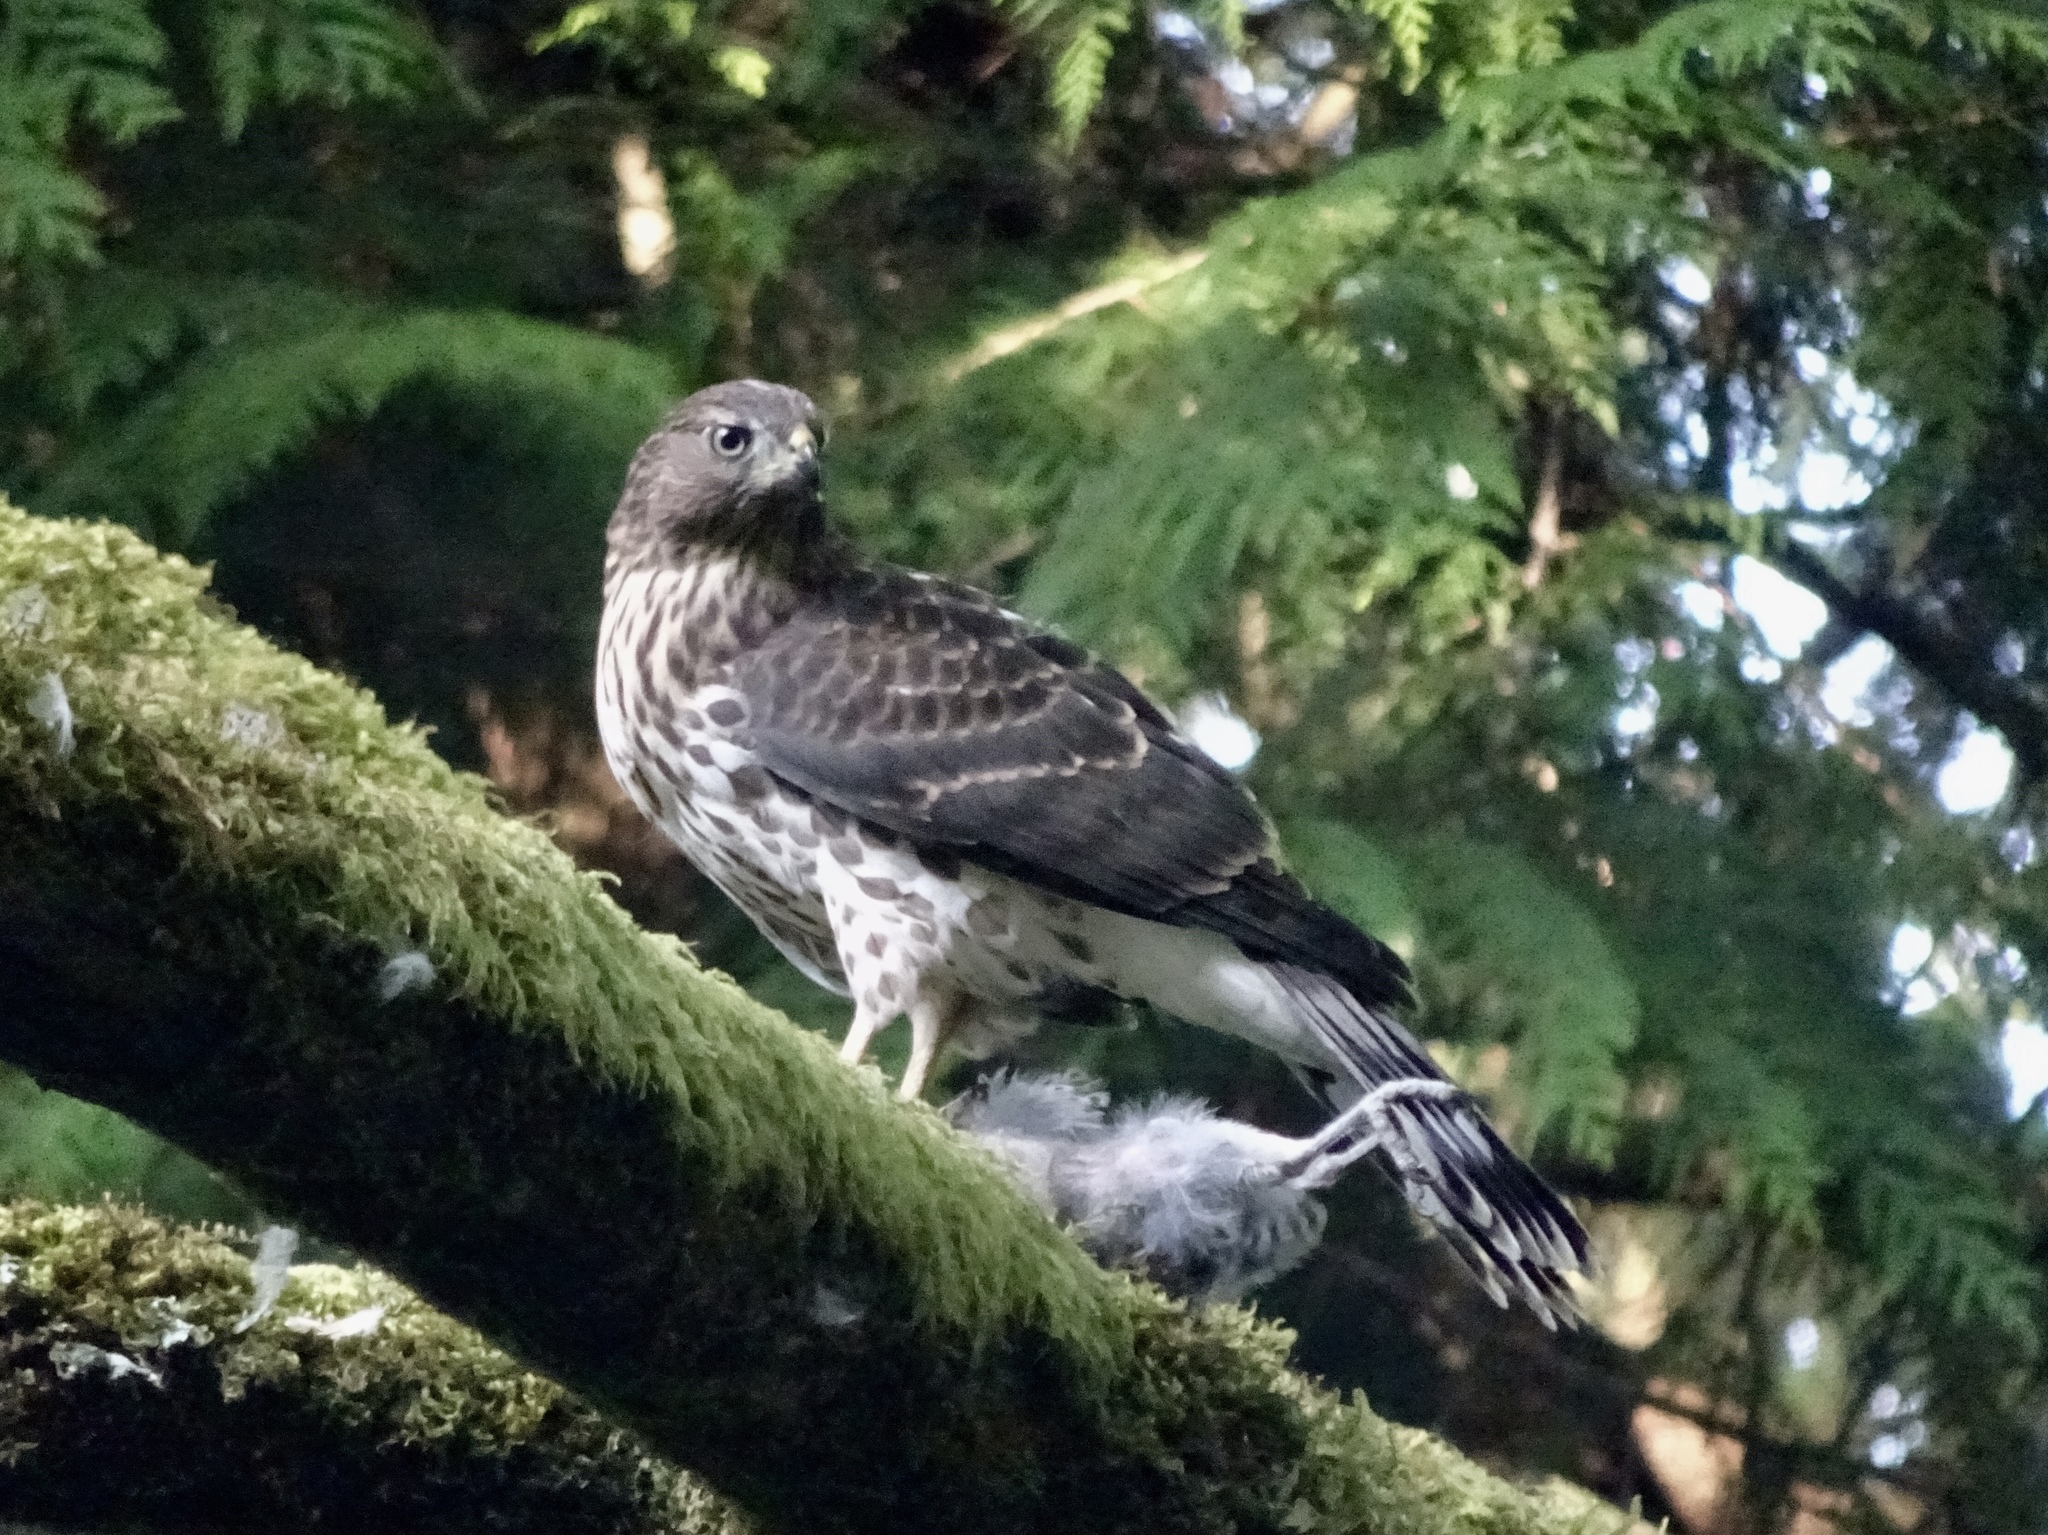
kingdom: Animalia
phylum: Chordata
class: Aves
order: Accipitriformes
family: Accipitridae
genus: Accipiter
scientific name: Accipiter cooperii
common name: Cooper's hawk
